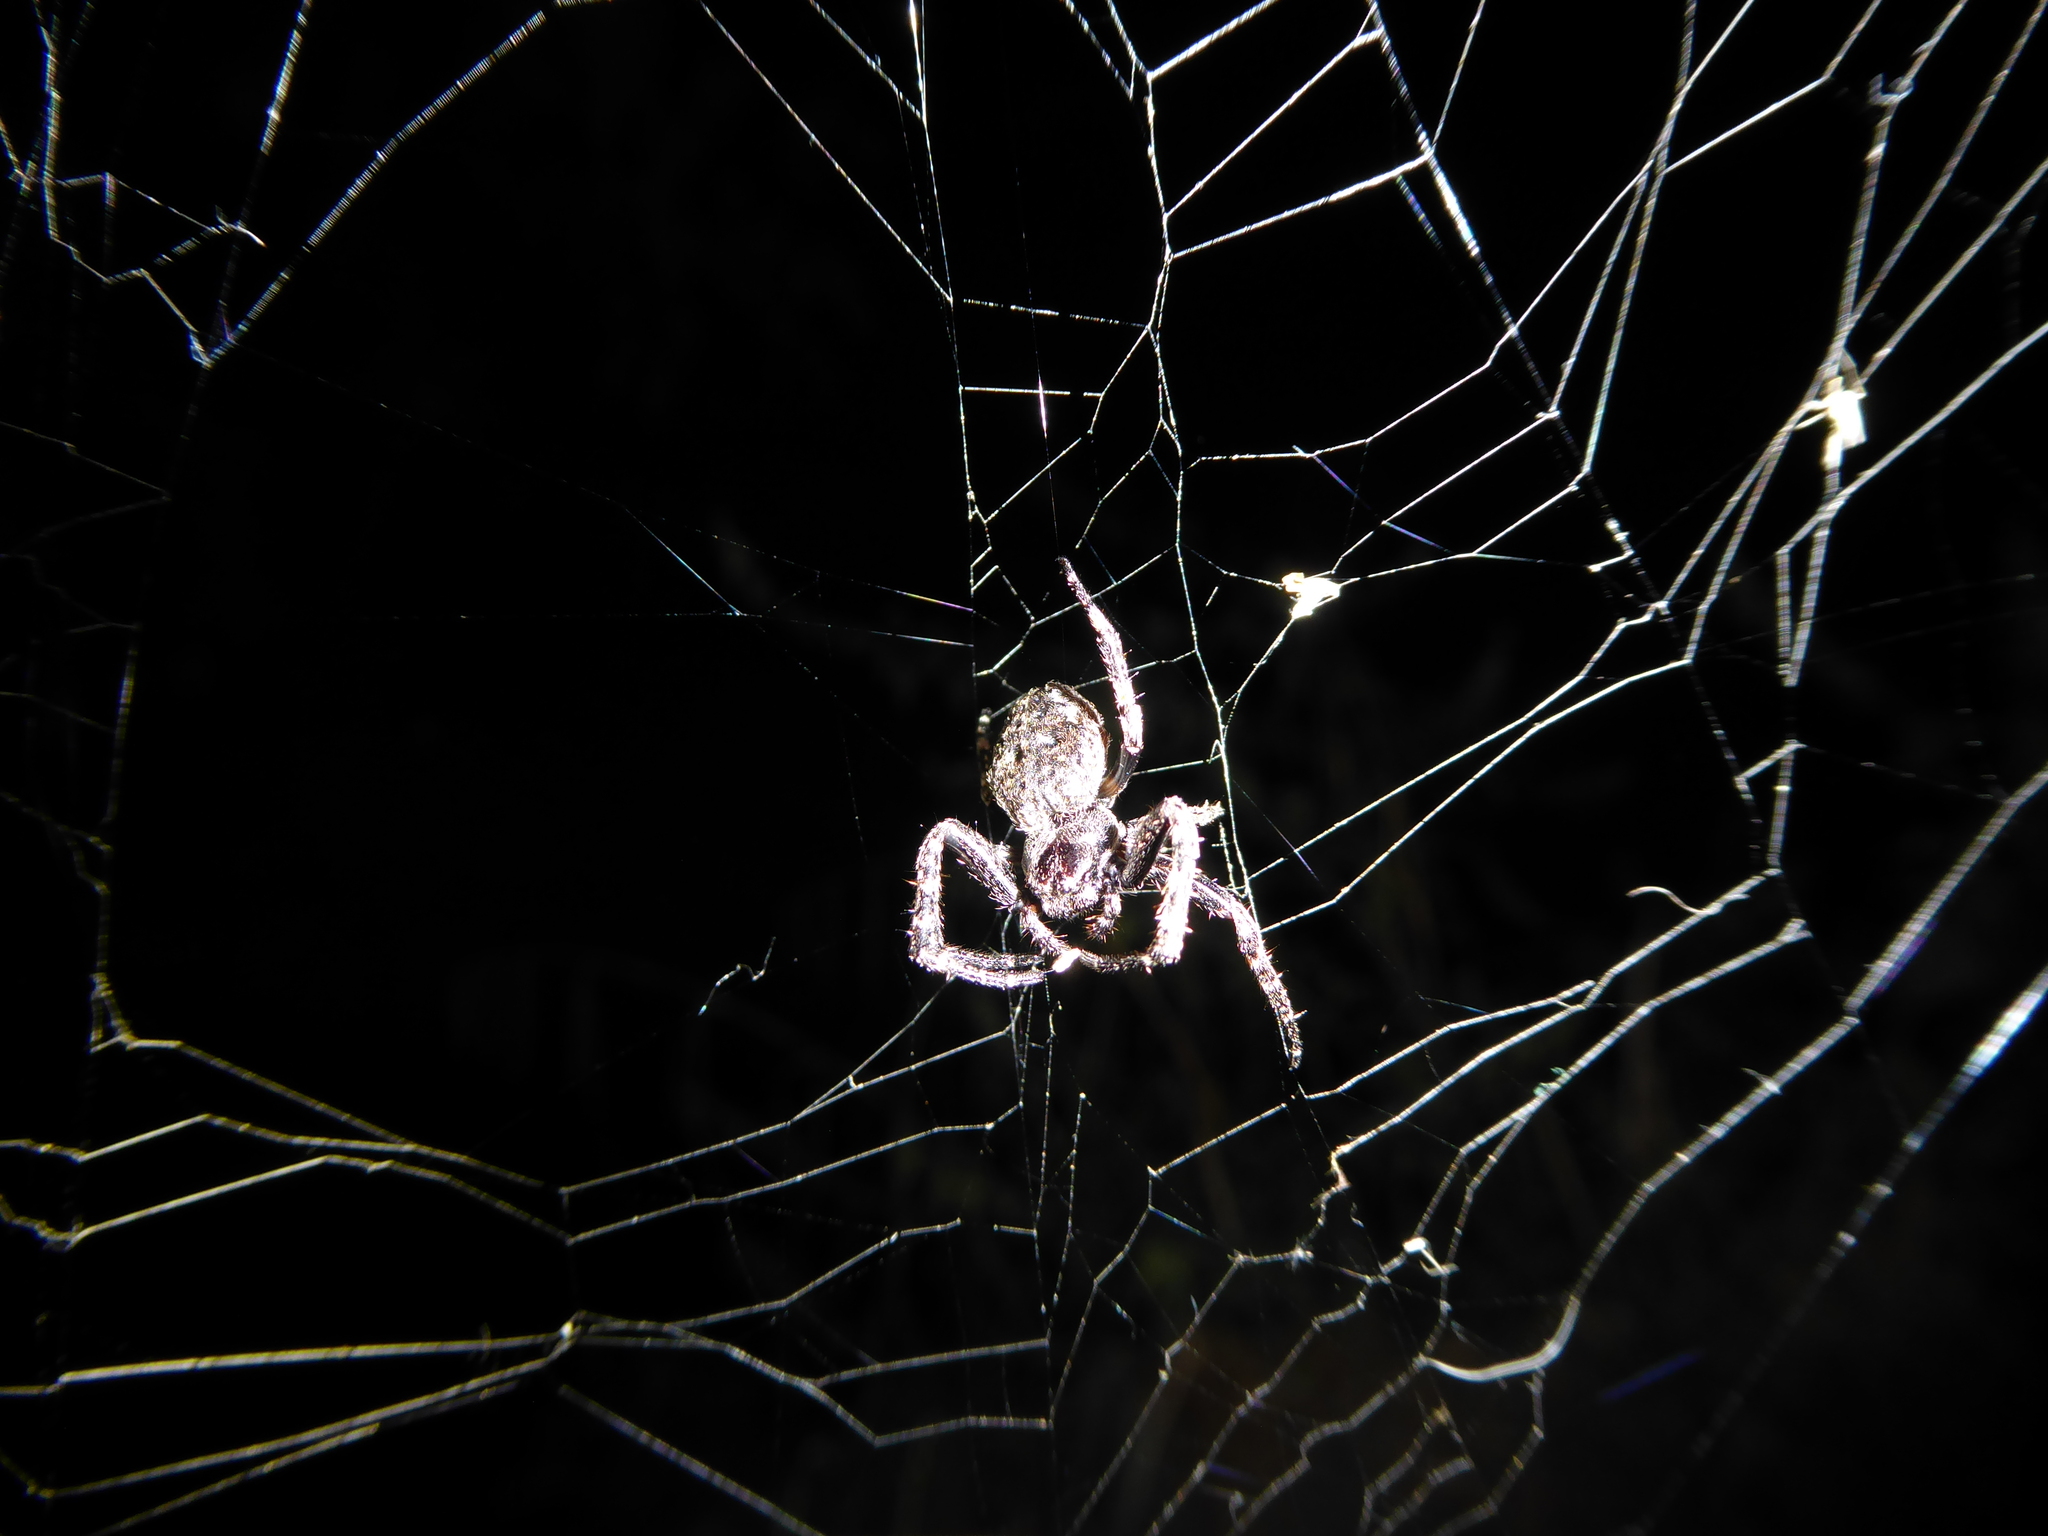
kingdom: Animalia
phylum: Arthropoda
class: Arachnida
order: Araneae
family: Araneidae
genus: Nuctenea
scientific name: Nuctenea umbratica
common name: Toad spider
